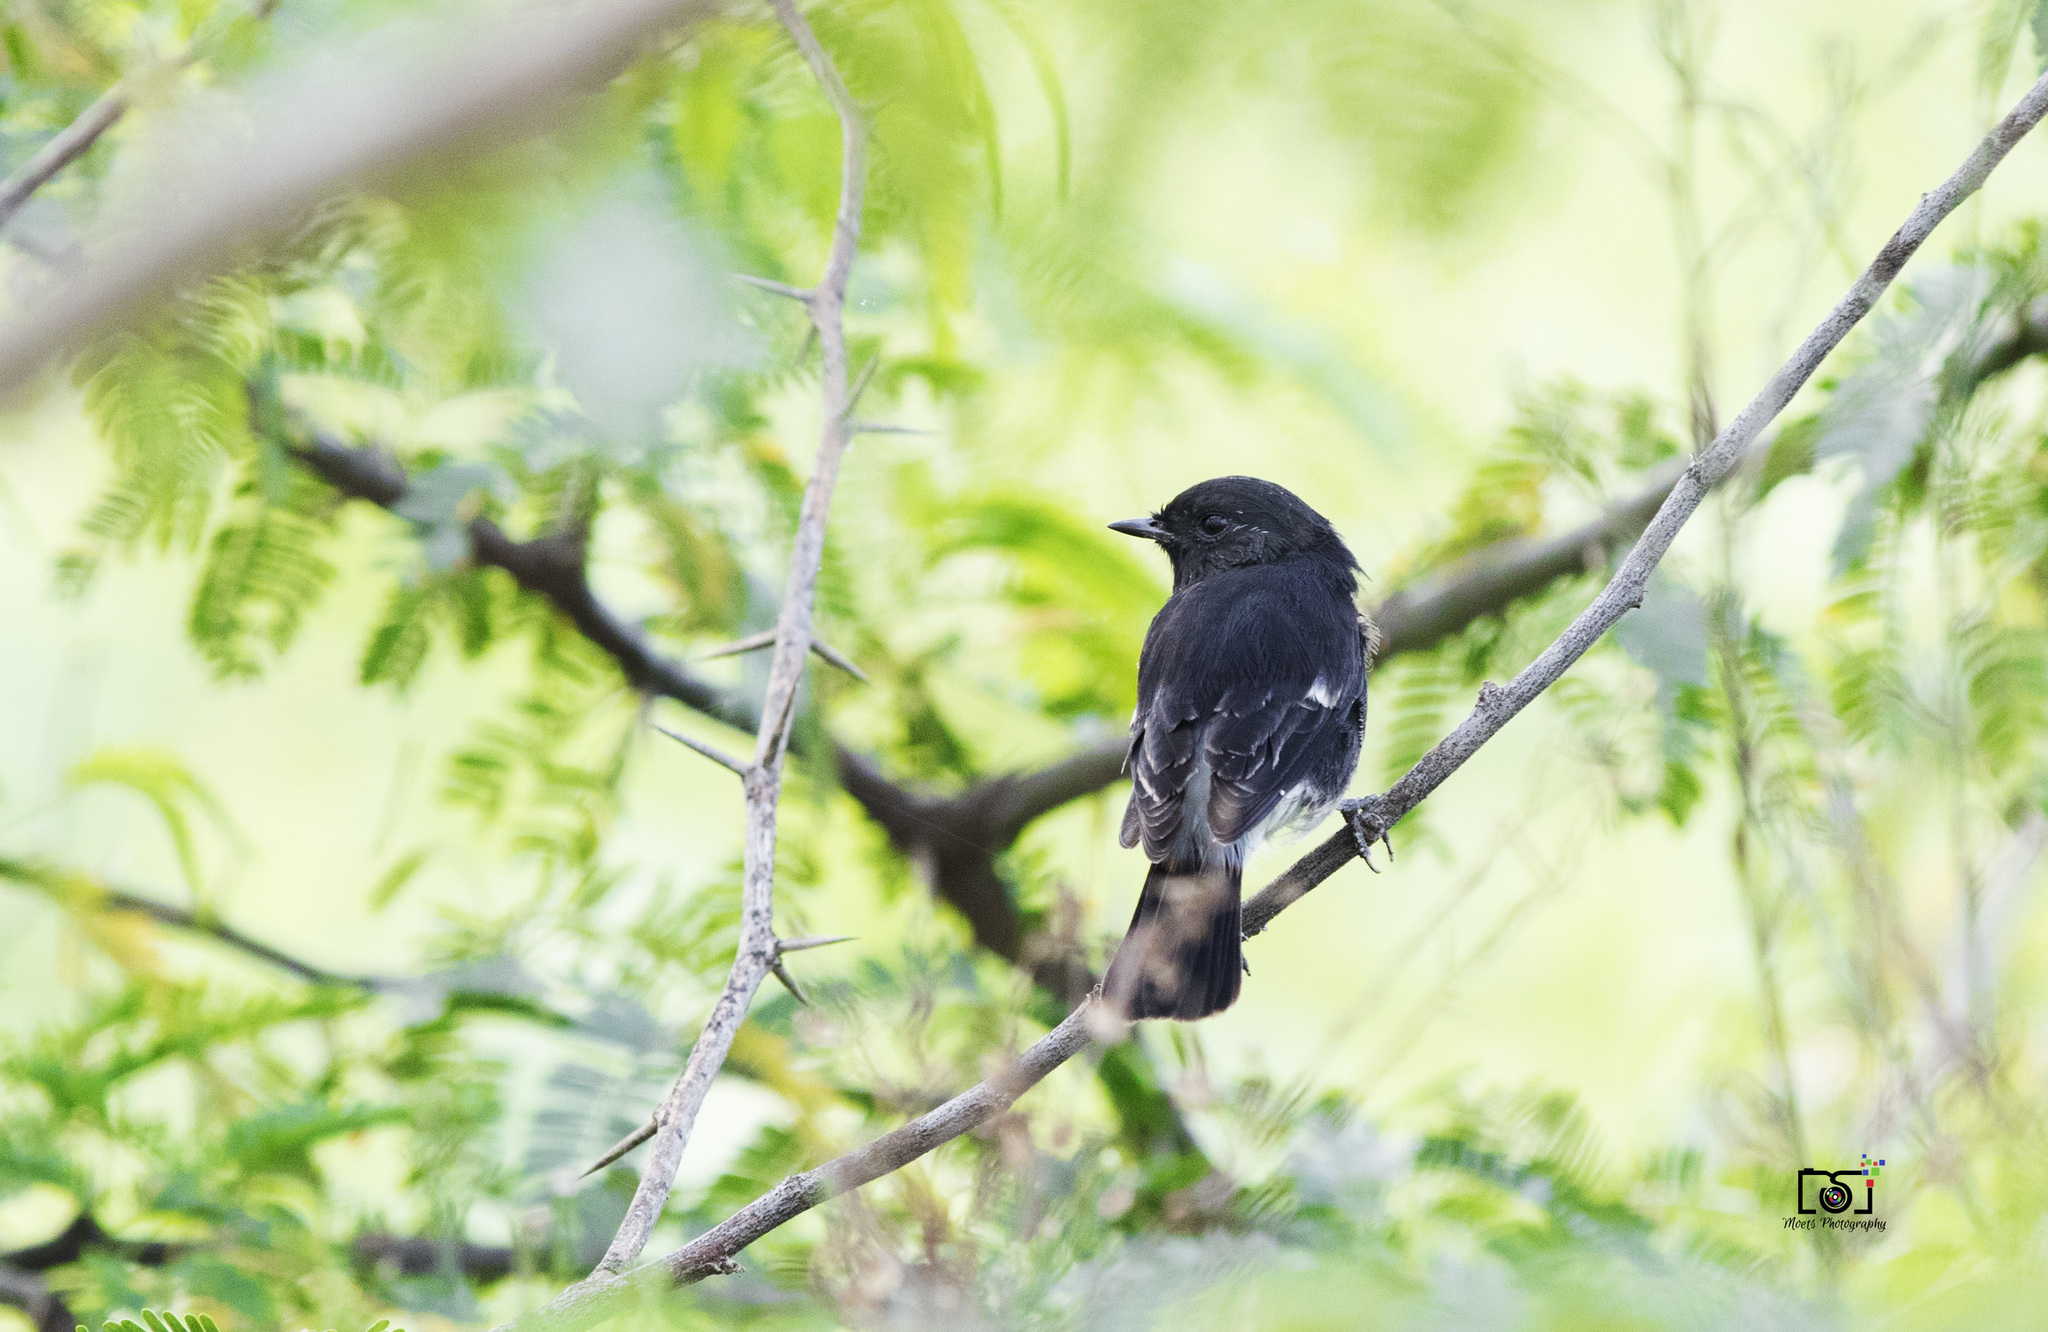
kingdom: Animalia
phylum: Chordata
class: Aves
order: Passeriformes
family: Muscicapidae
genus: Saxicola
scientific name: Saxicola caprata
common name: Pied bush chat
